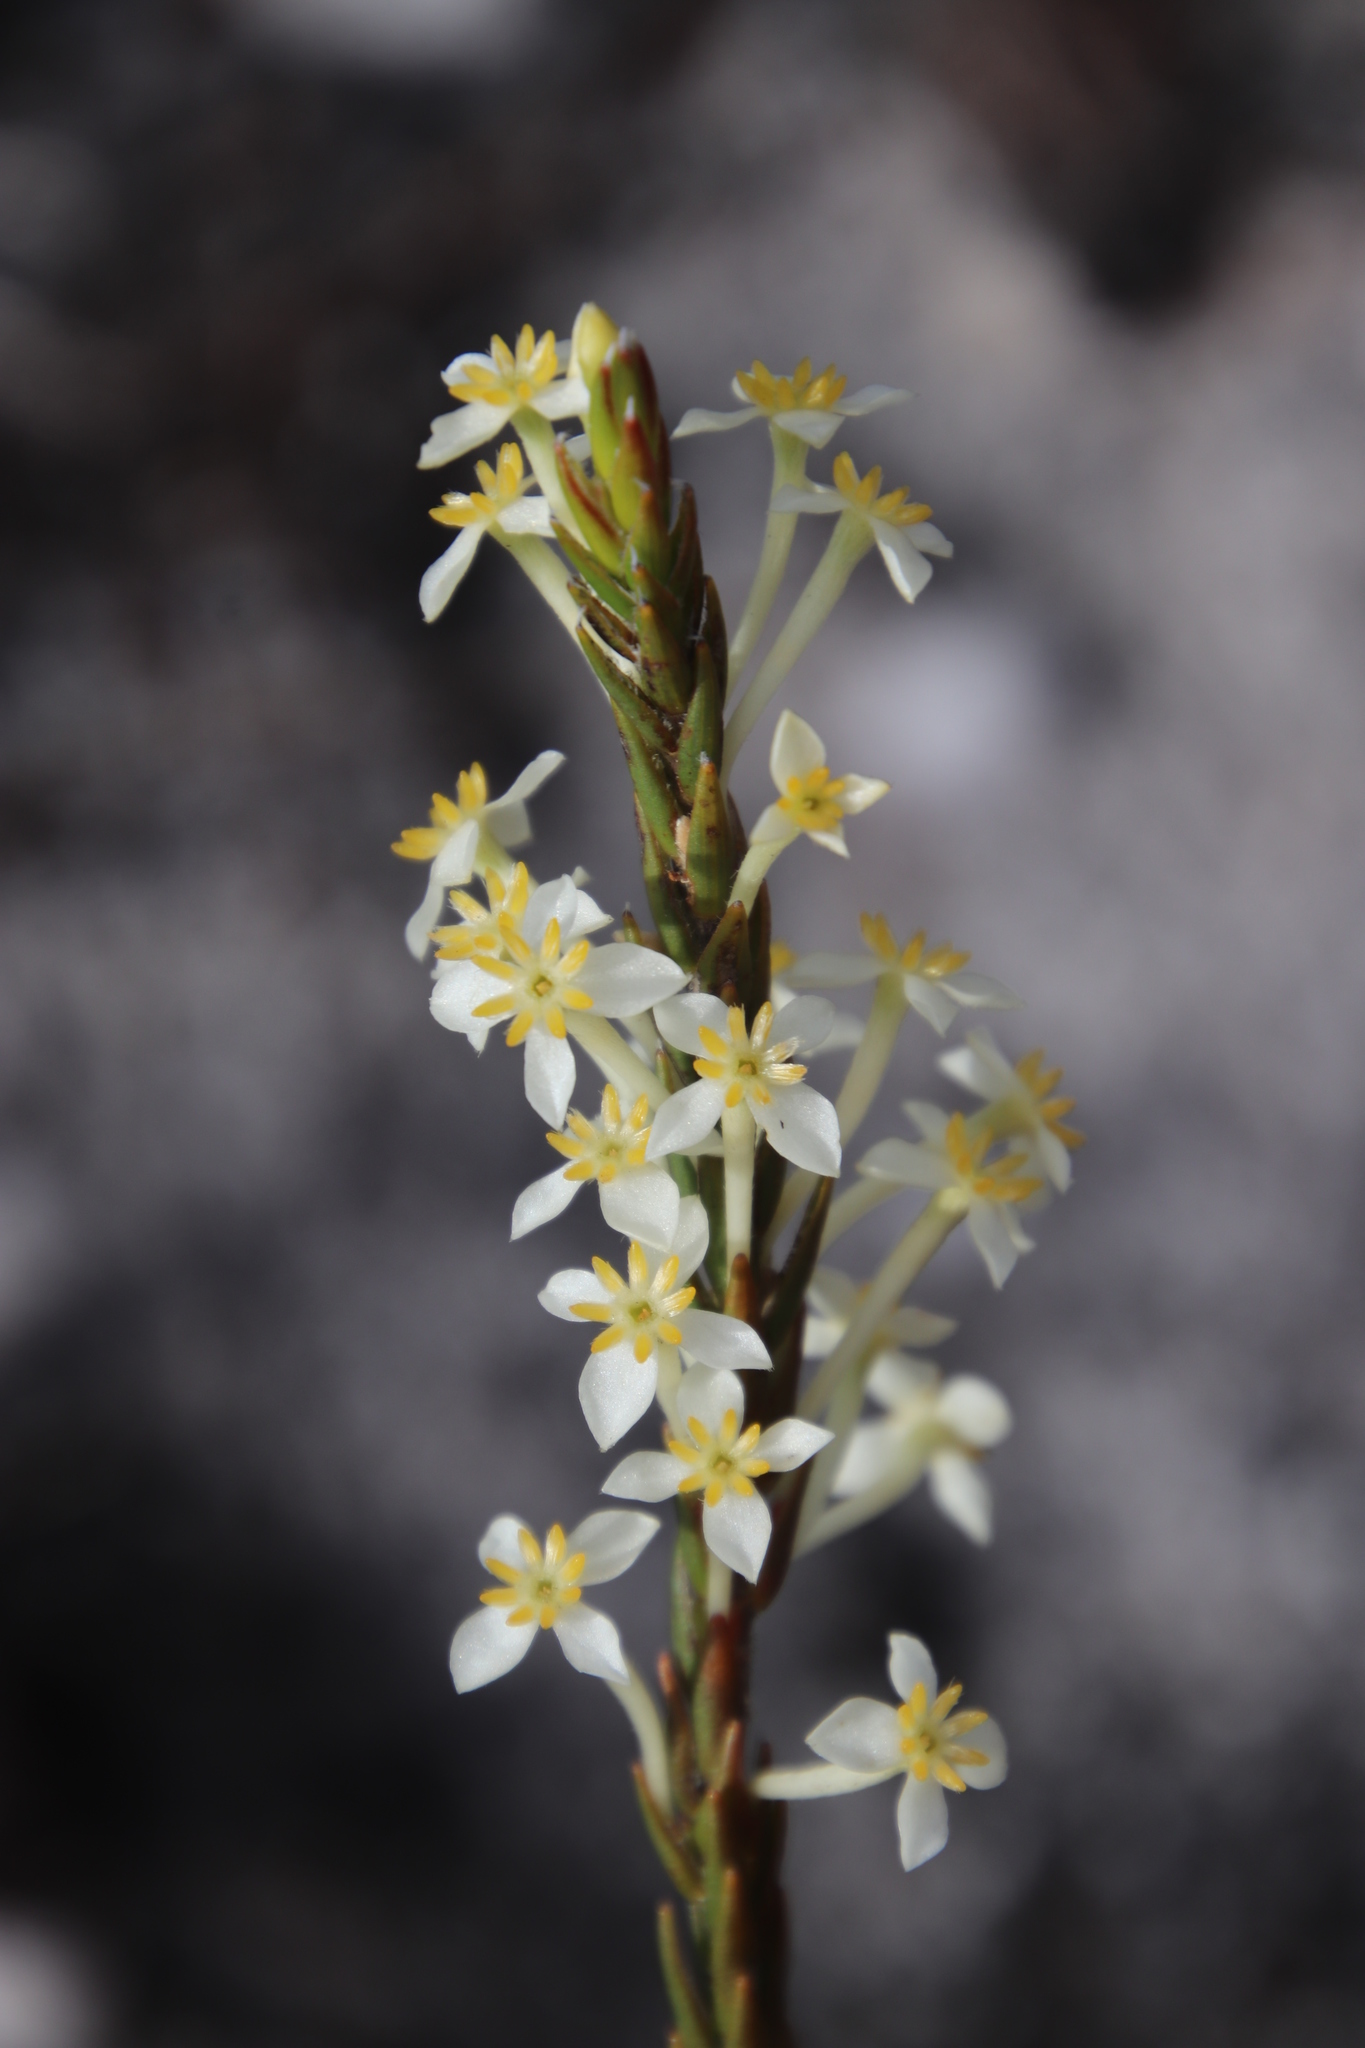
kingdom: Plantae
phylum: Tracheophyta
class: Magnoliopsida
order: Malvales
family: Thymelaeaceae
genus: Struthiola
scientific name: Struthiola ciliata
